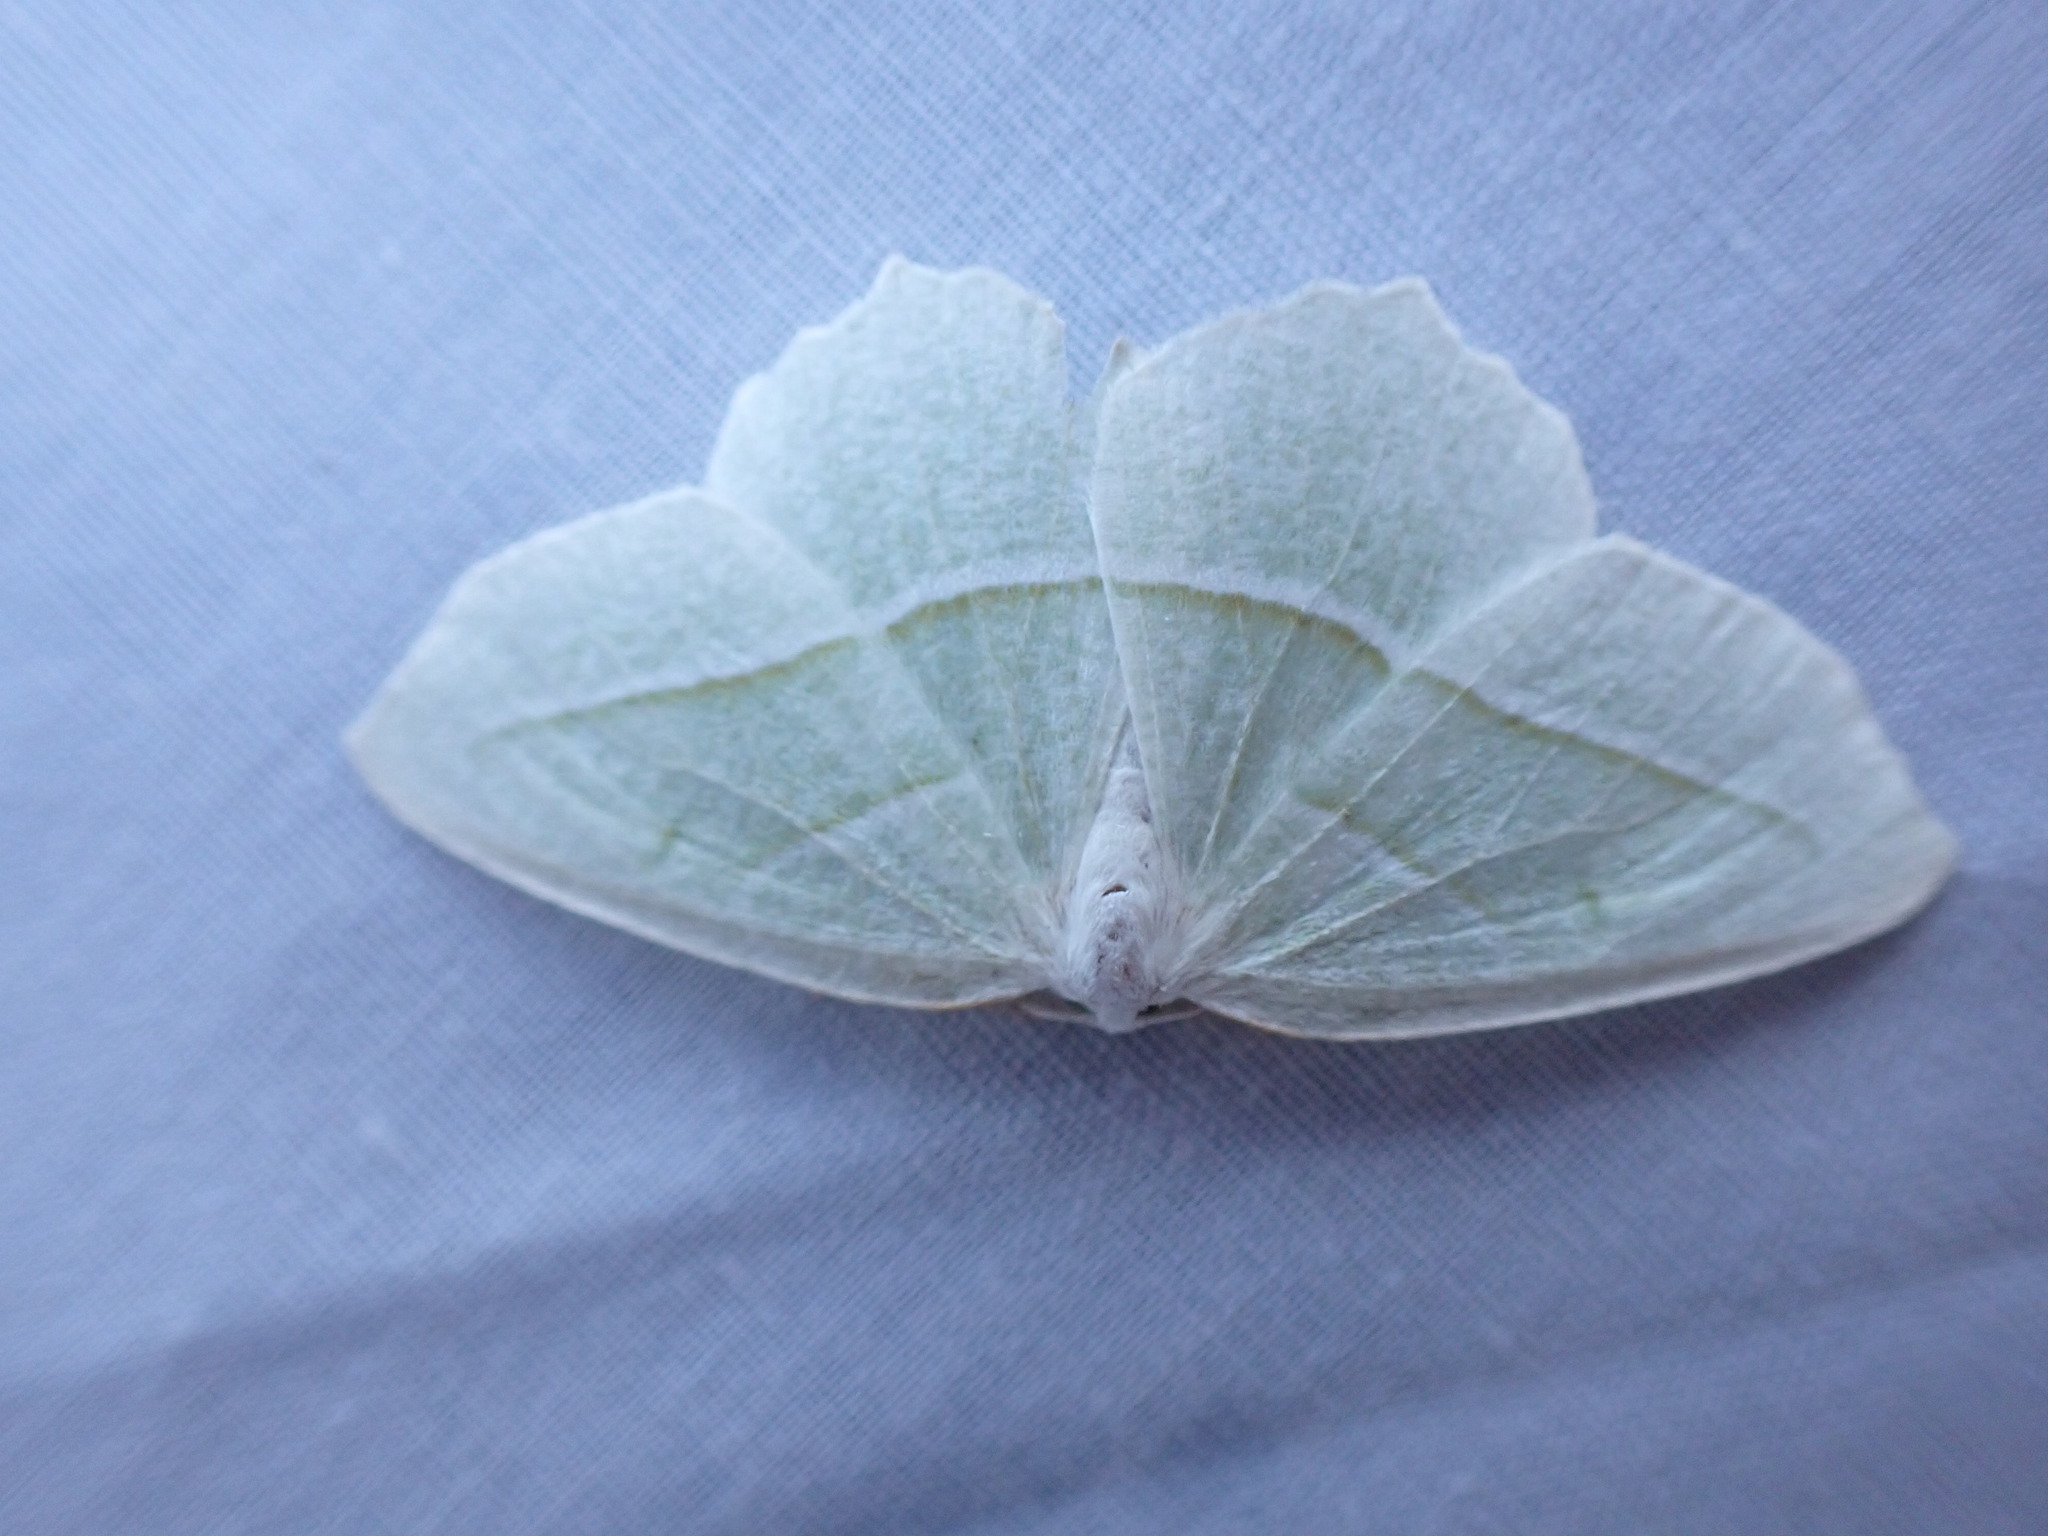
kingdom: Animalia
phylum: Arthropoda
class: Insecta
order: Lepidoptera
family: Geometridae
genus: Campaea
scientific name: Campaea perlata
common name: Fringed looper
